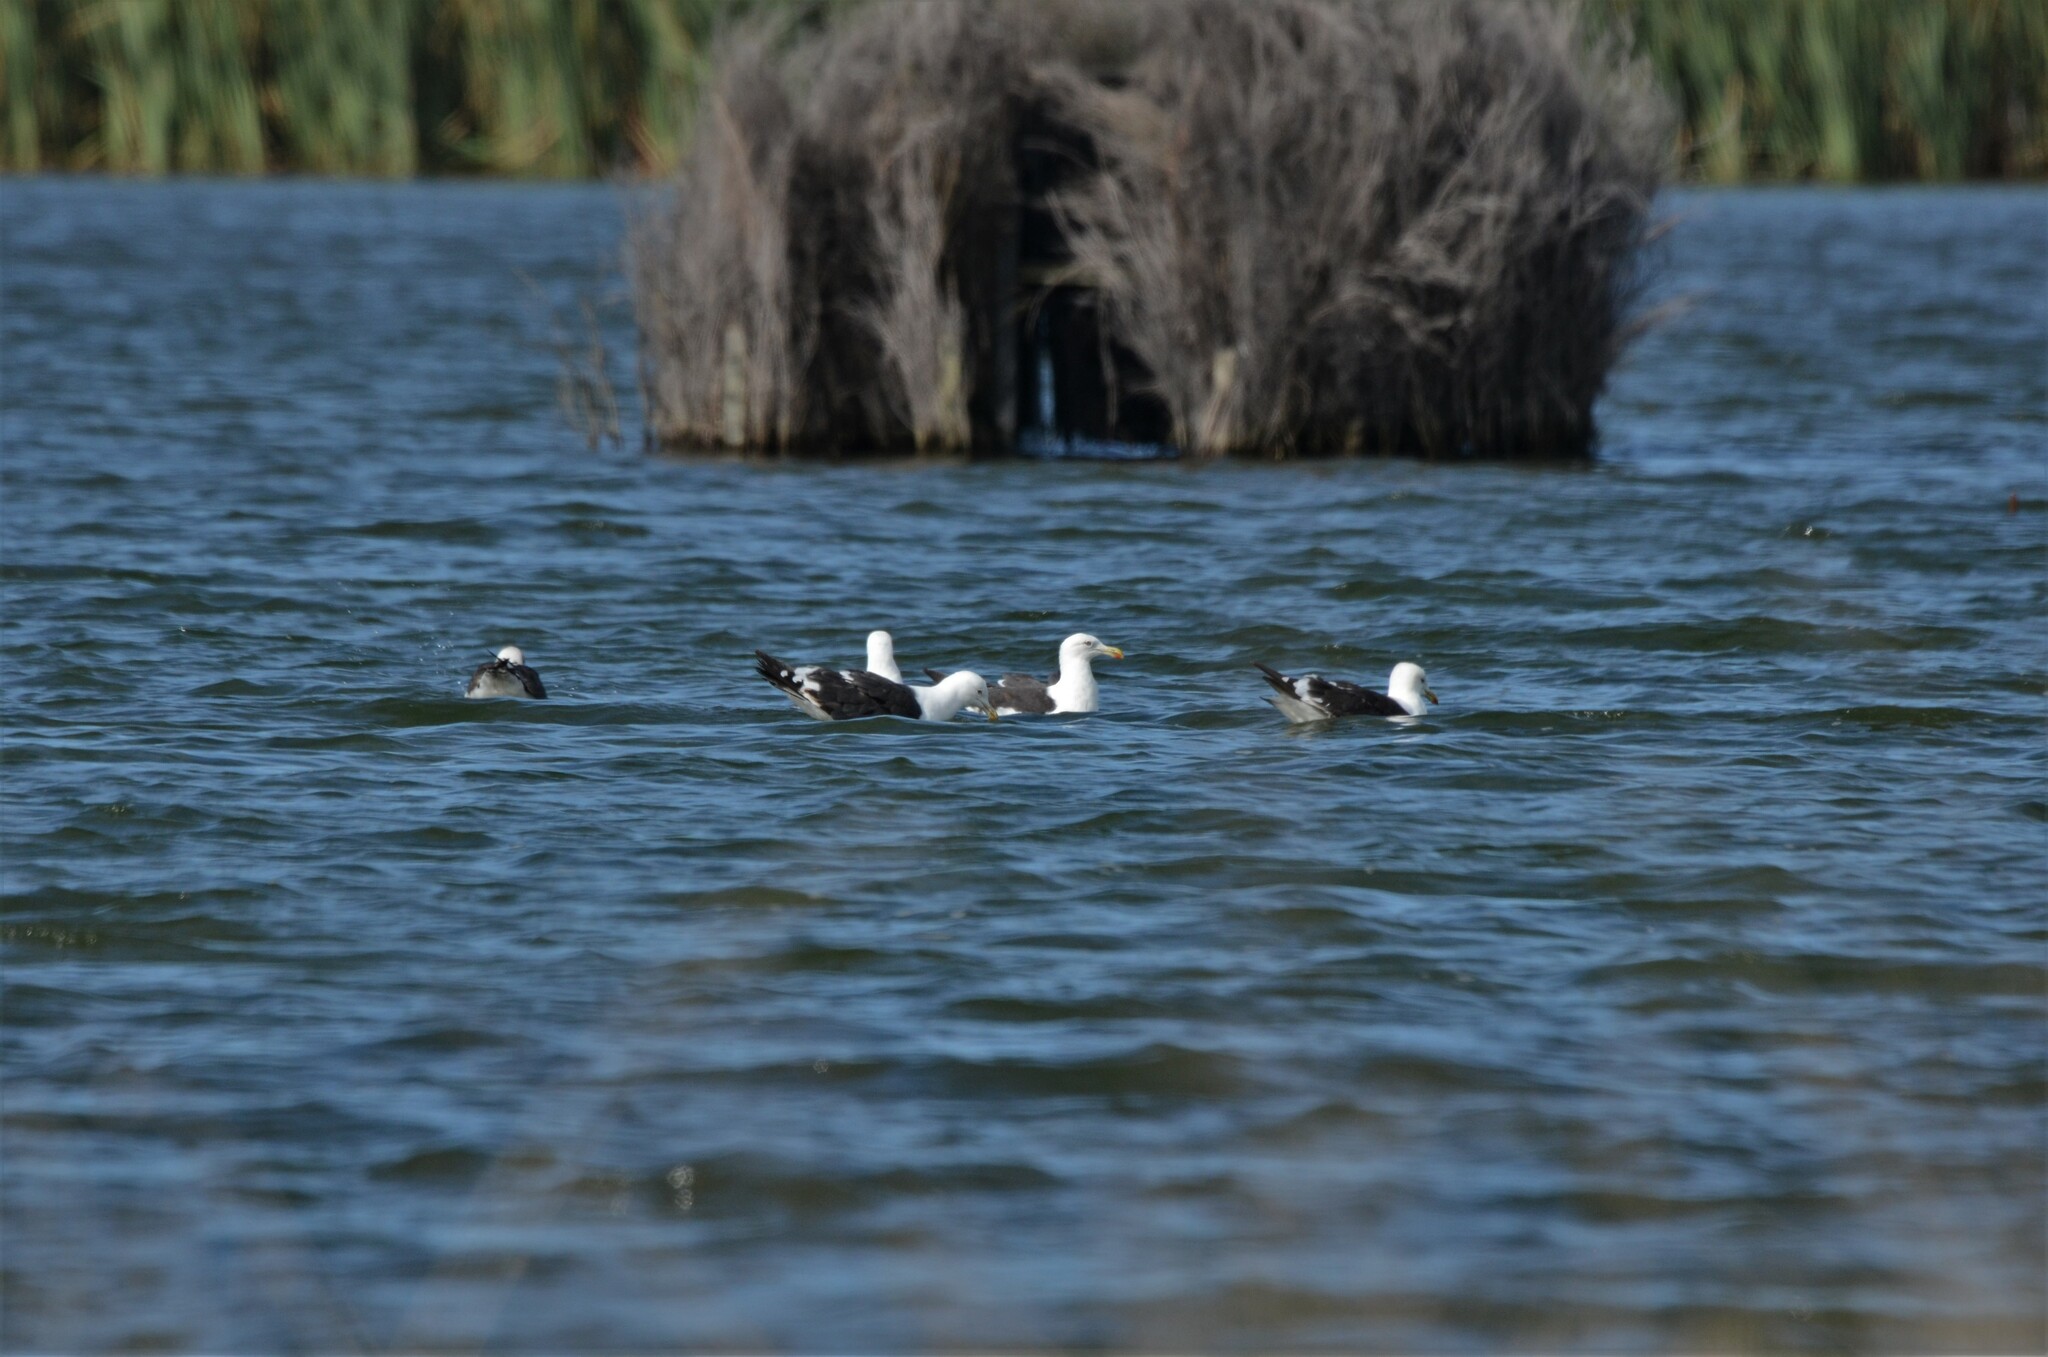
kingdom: Animalia
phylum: Chordata
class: Aves
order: Charadriiformes
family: Laridae
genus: Larus
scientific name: Larus dominicanus
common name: Kelp gull
